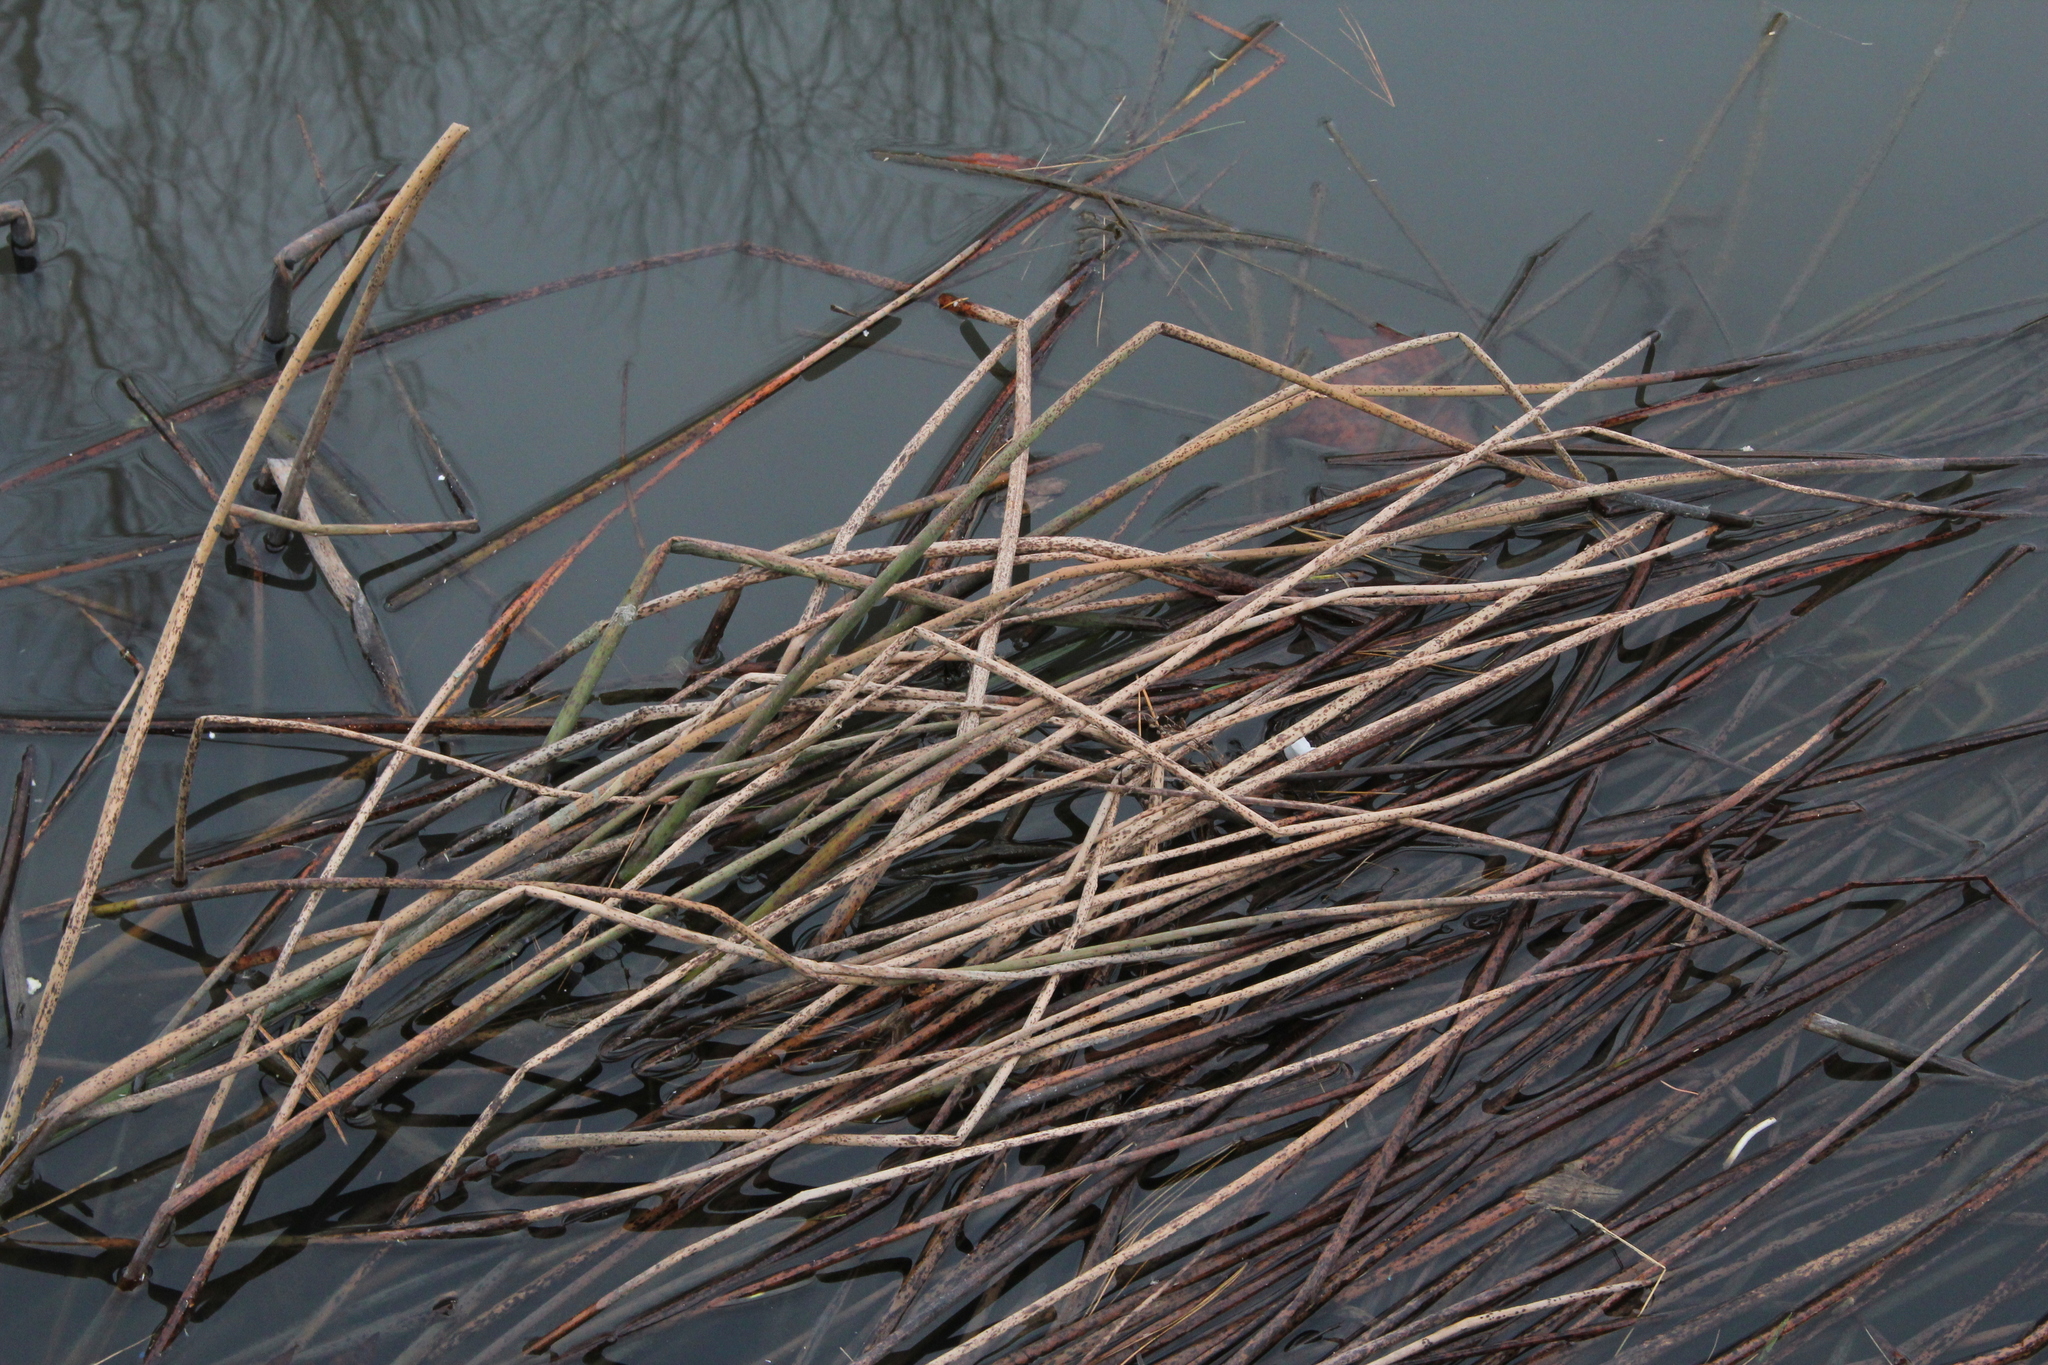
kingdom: Plantae
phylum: Tracheophyta
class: Liliopsida
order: Poales
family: Cyperaceae
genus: Schoenoplectus
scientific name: Schoenoplectus tabernaemontani
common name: Grey club-rush
